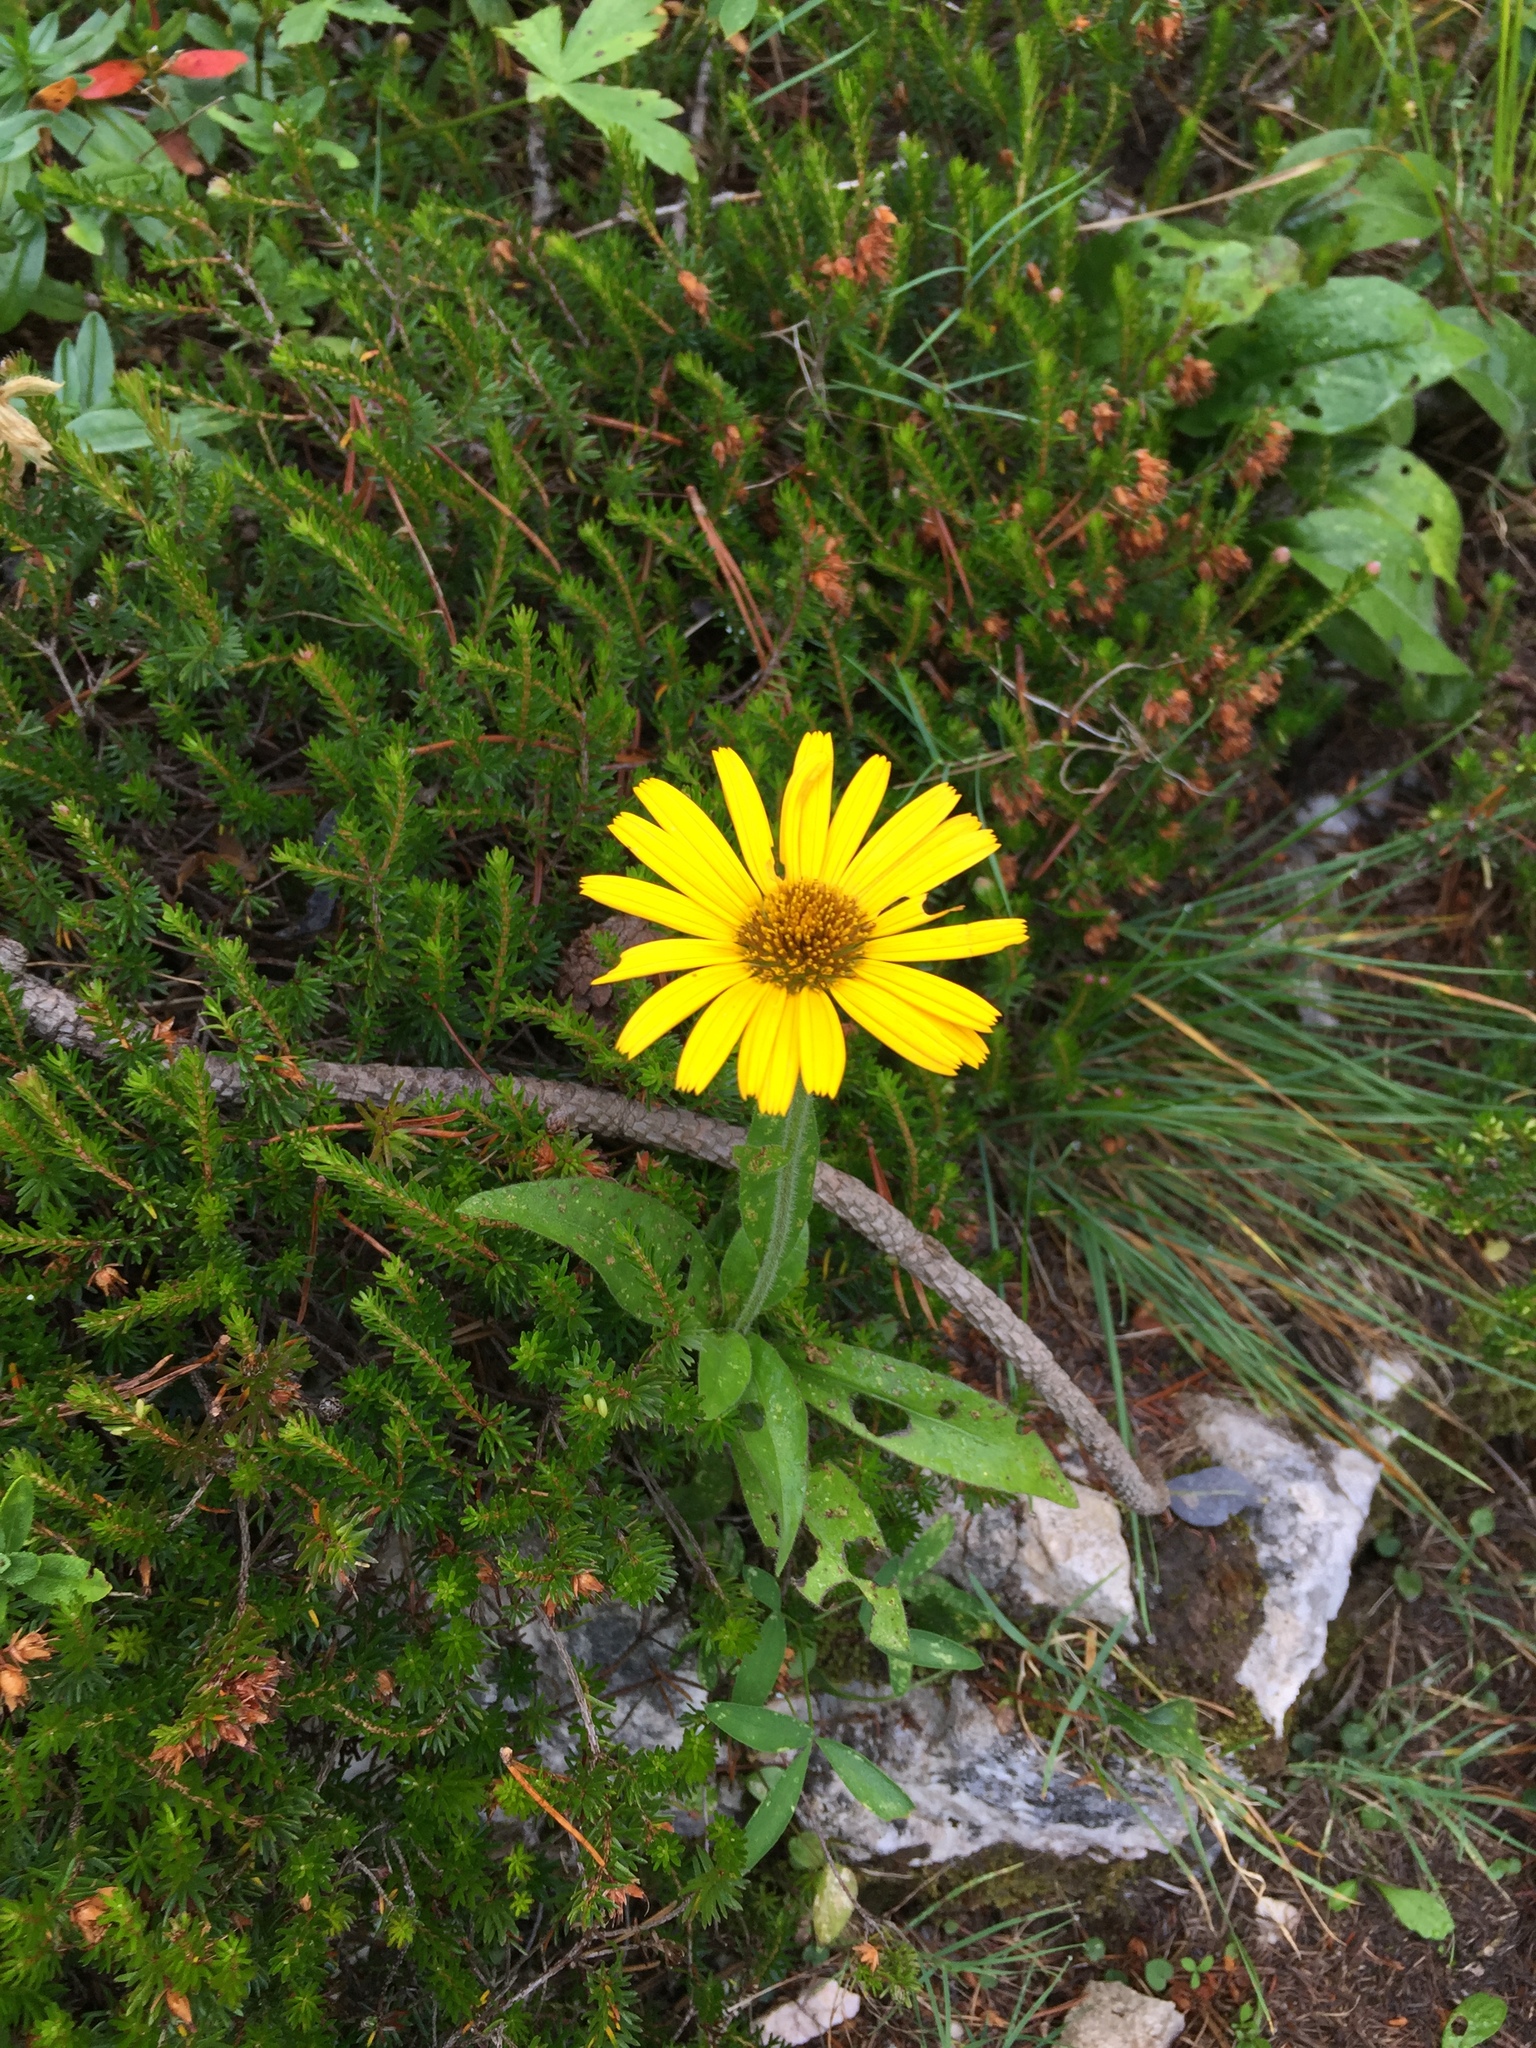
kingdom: Plantae
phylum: Tracheophyta
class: Magnoliopsida
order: Asterales
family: Asteraceae
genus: Buphthalmum
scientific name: Buphthalmum salicifolium
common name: Willow-leaved yellow-oxeye
